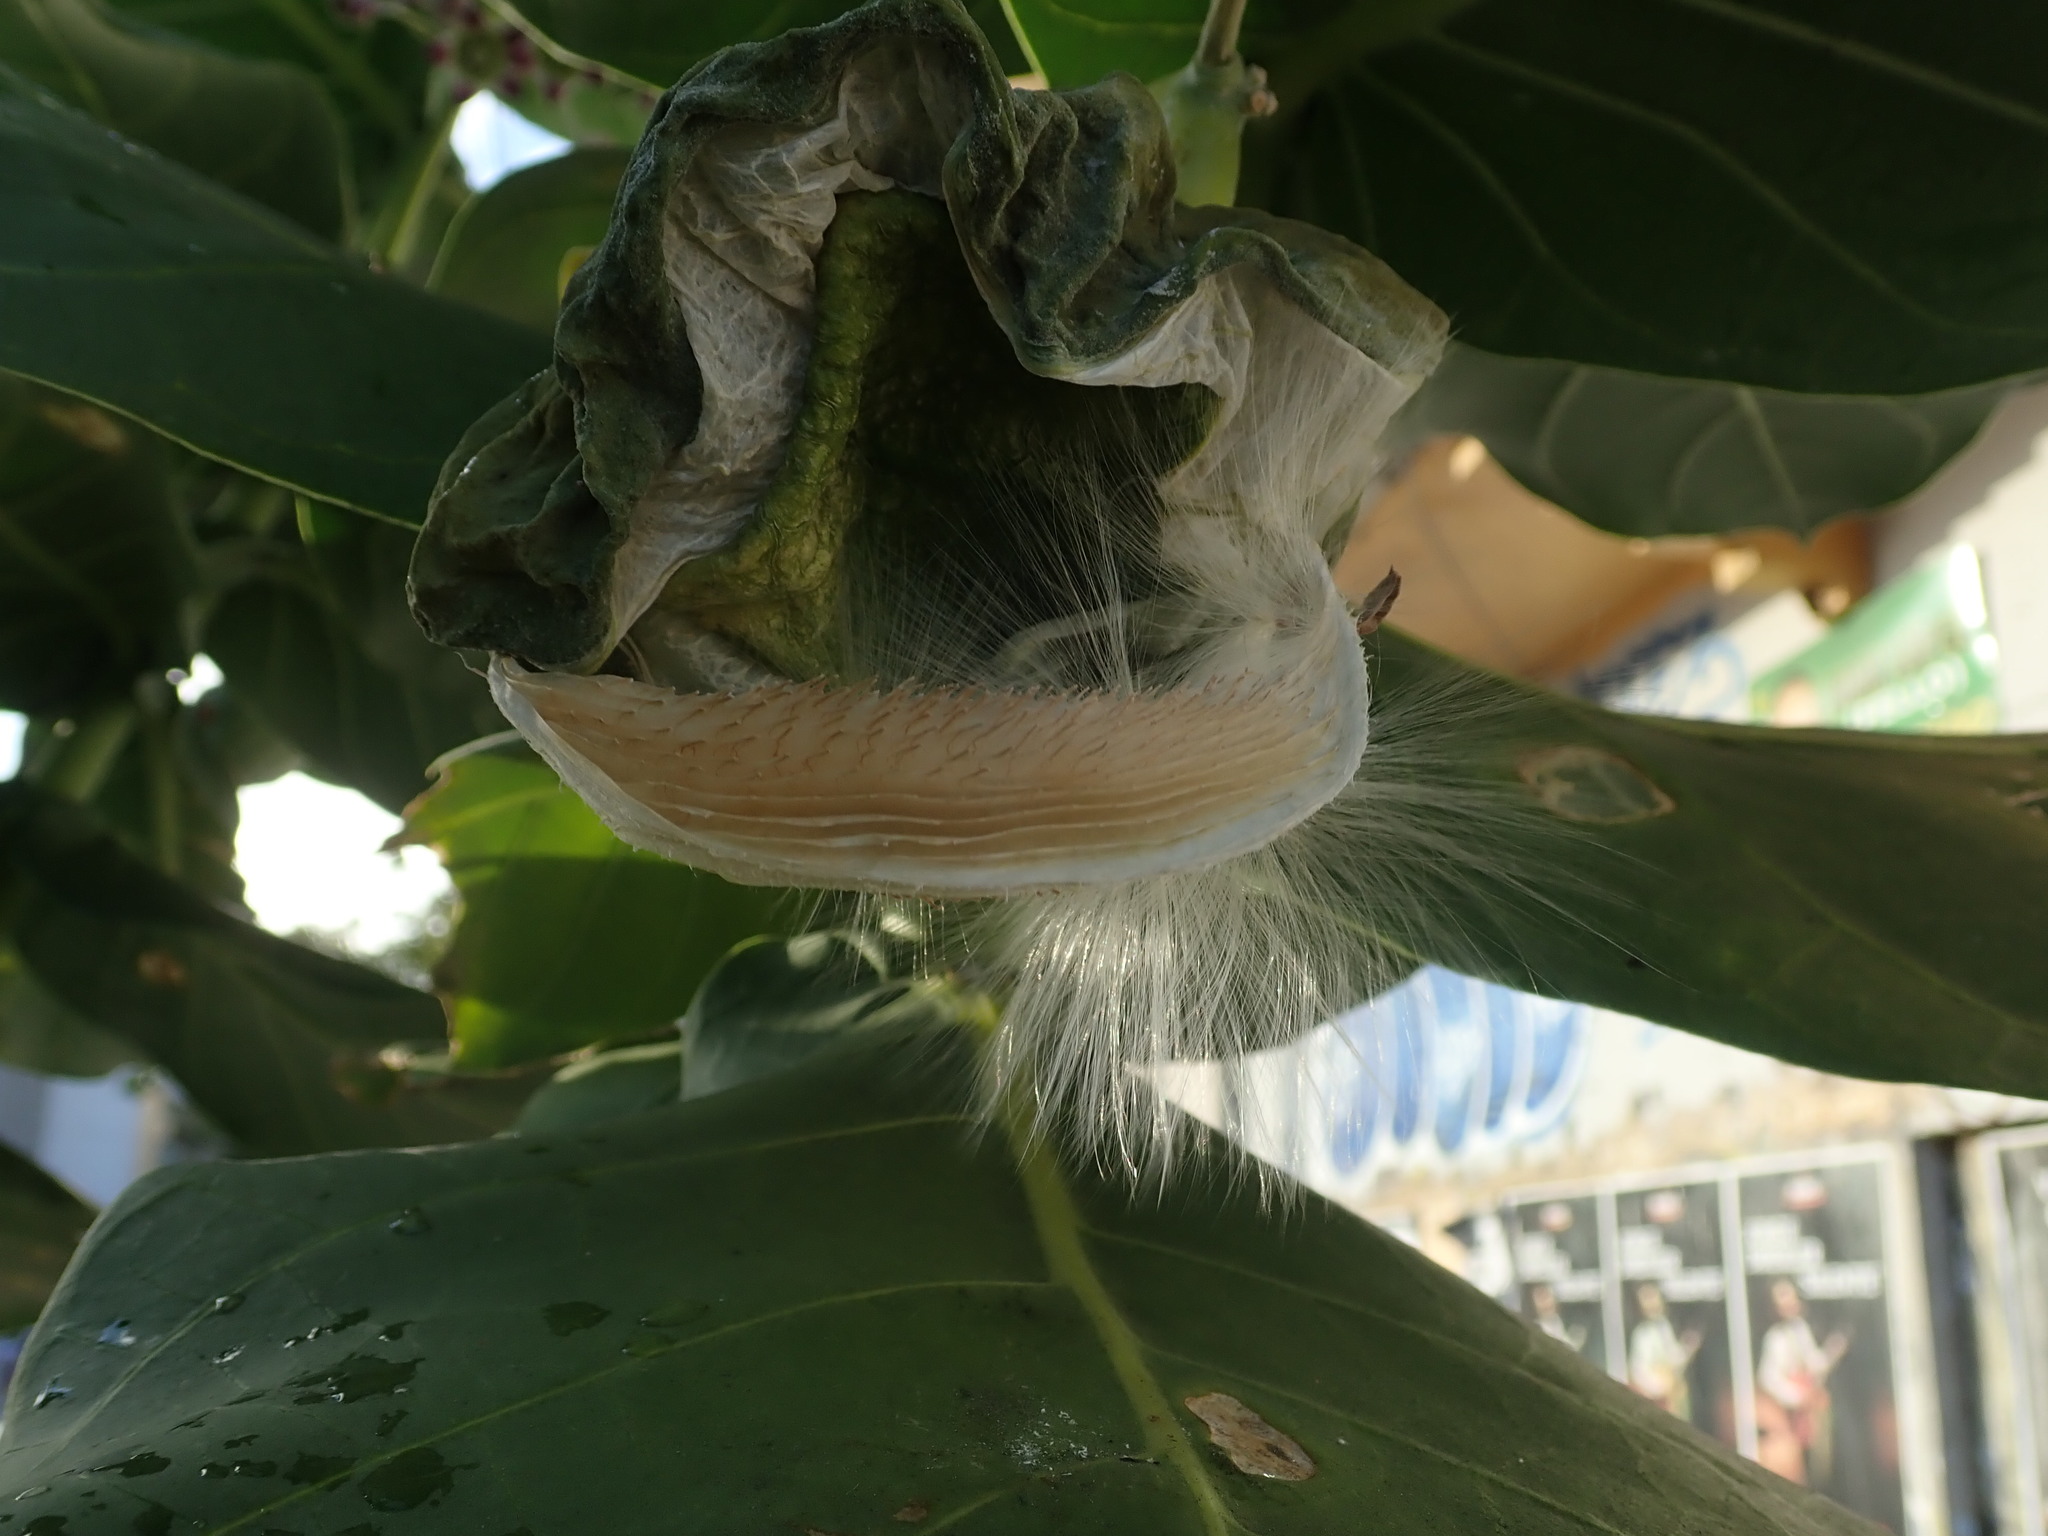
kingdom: Plantae
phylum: Tracheophyta
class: Magnoliopsida
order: Gentianales
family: Apocynaceae
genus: Calotropis
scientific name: Calotropis procera
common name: Roostertree
